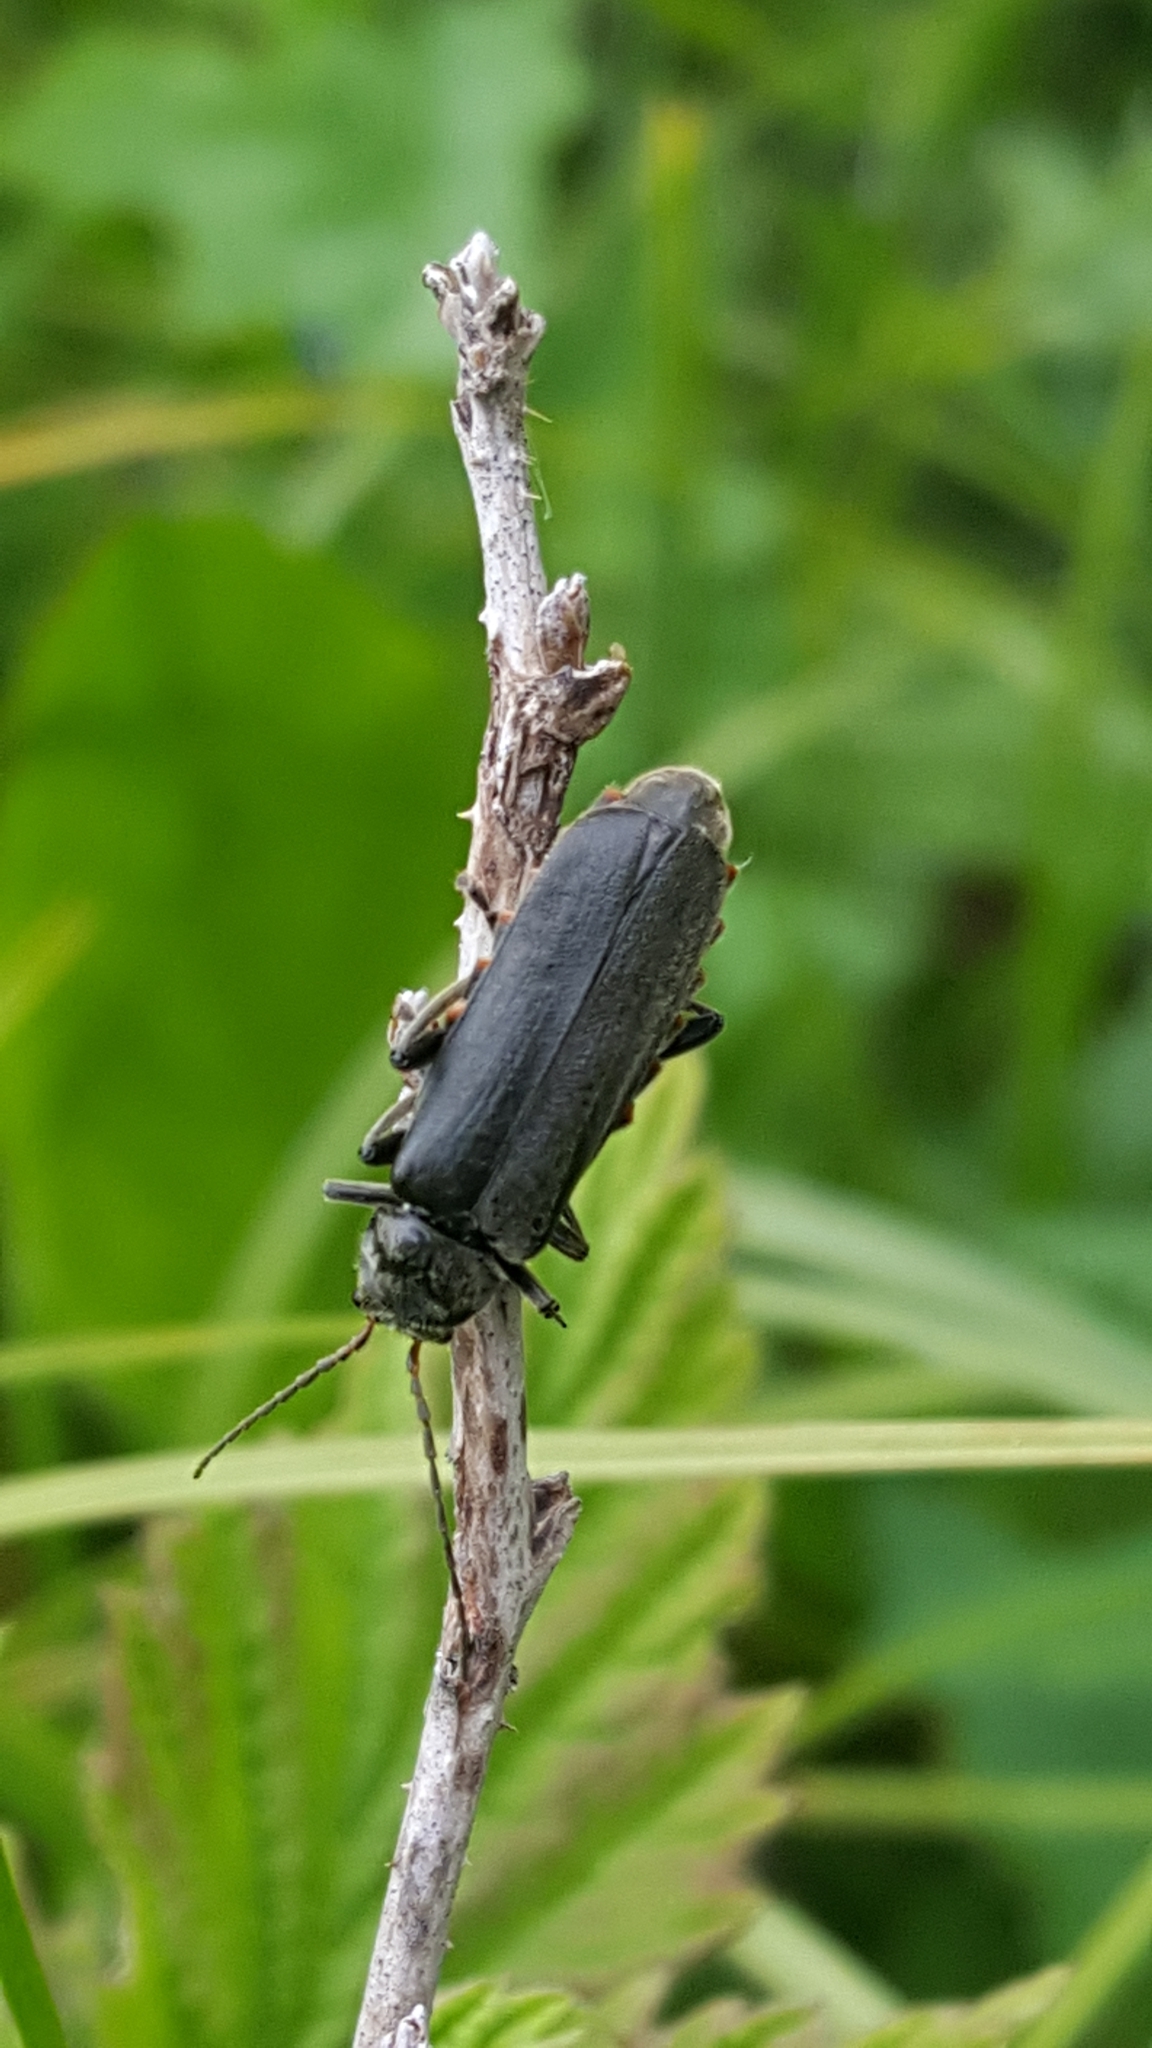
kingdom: Animalia
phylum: Arthropoda
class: Insecta
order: Coleoptera
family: Cantharidae
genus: Cantharis
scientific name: Cantharis tristis
